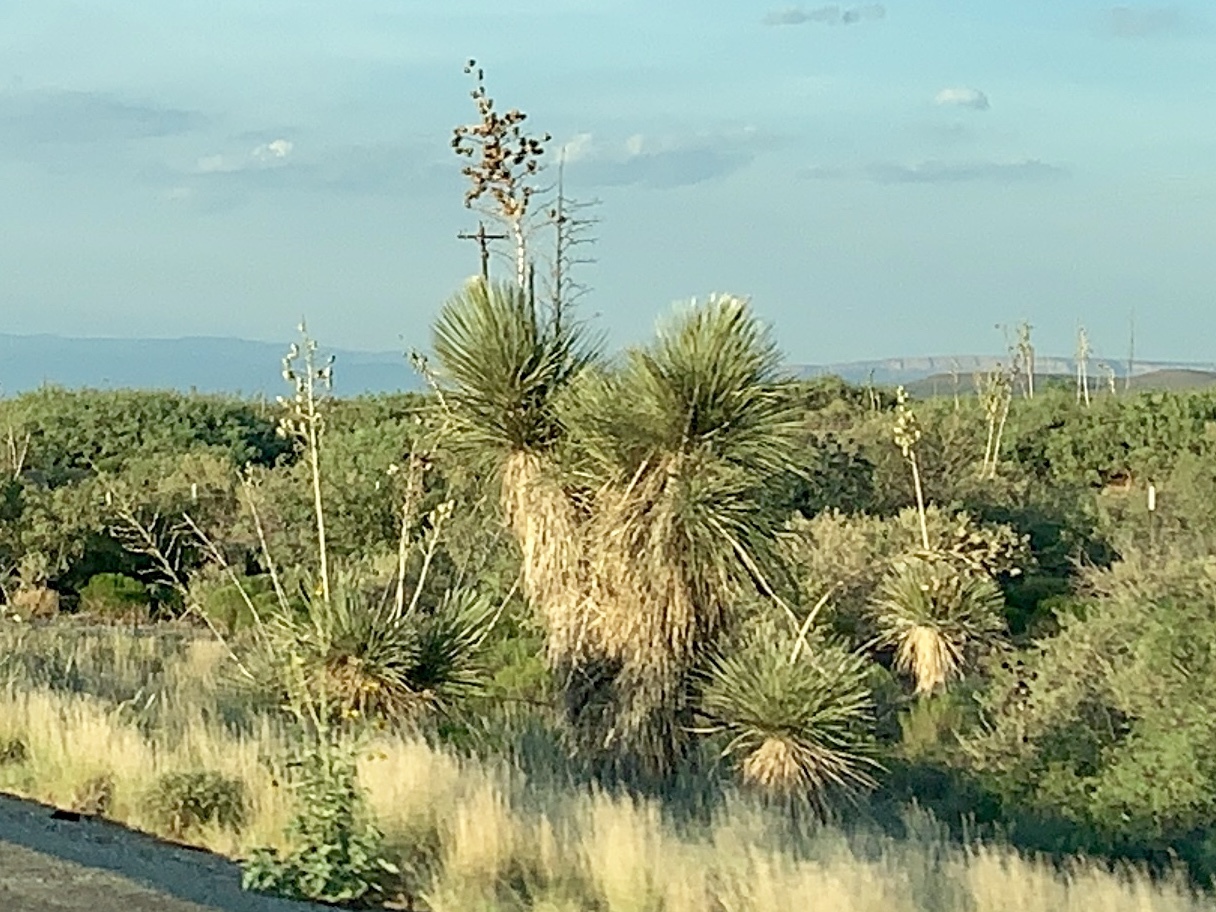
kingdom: Plantae
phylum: Tracheophyta
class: Liliopsida
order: Asparagales
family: Asparagaceae
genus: Yucca
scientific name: Yucca elata
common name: Palmella
